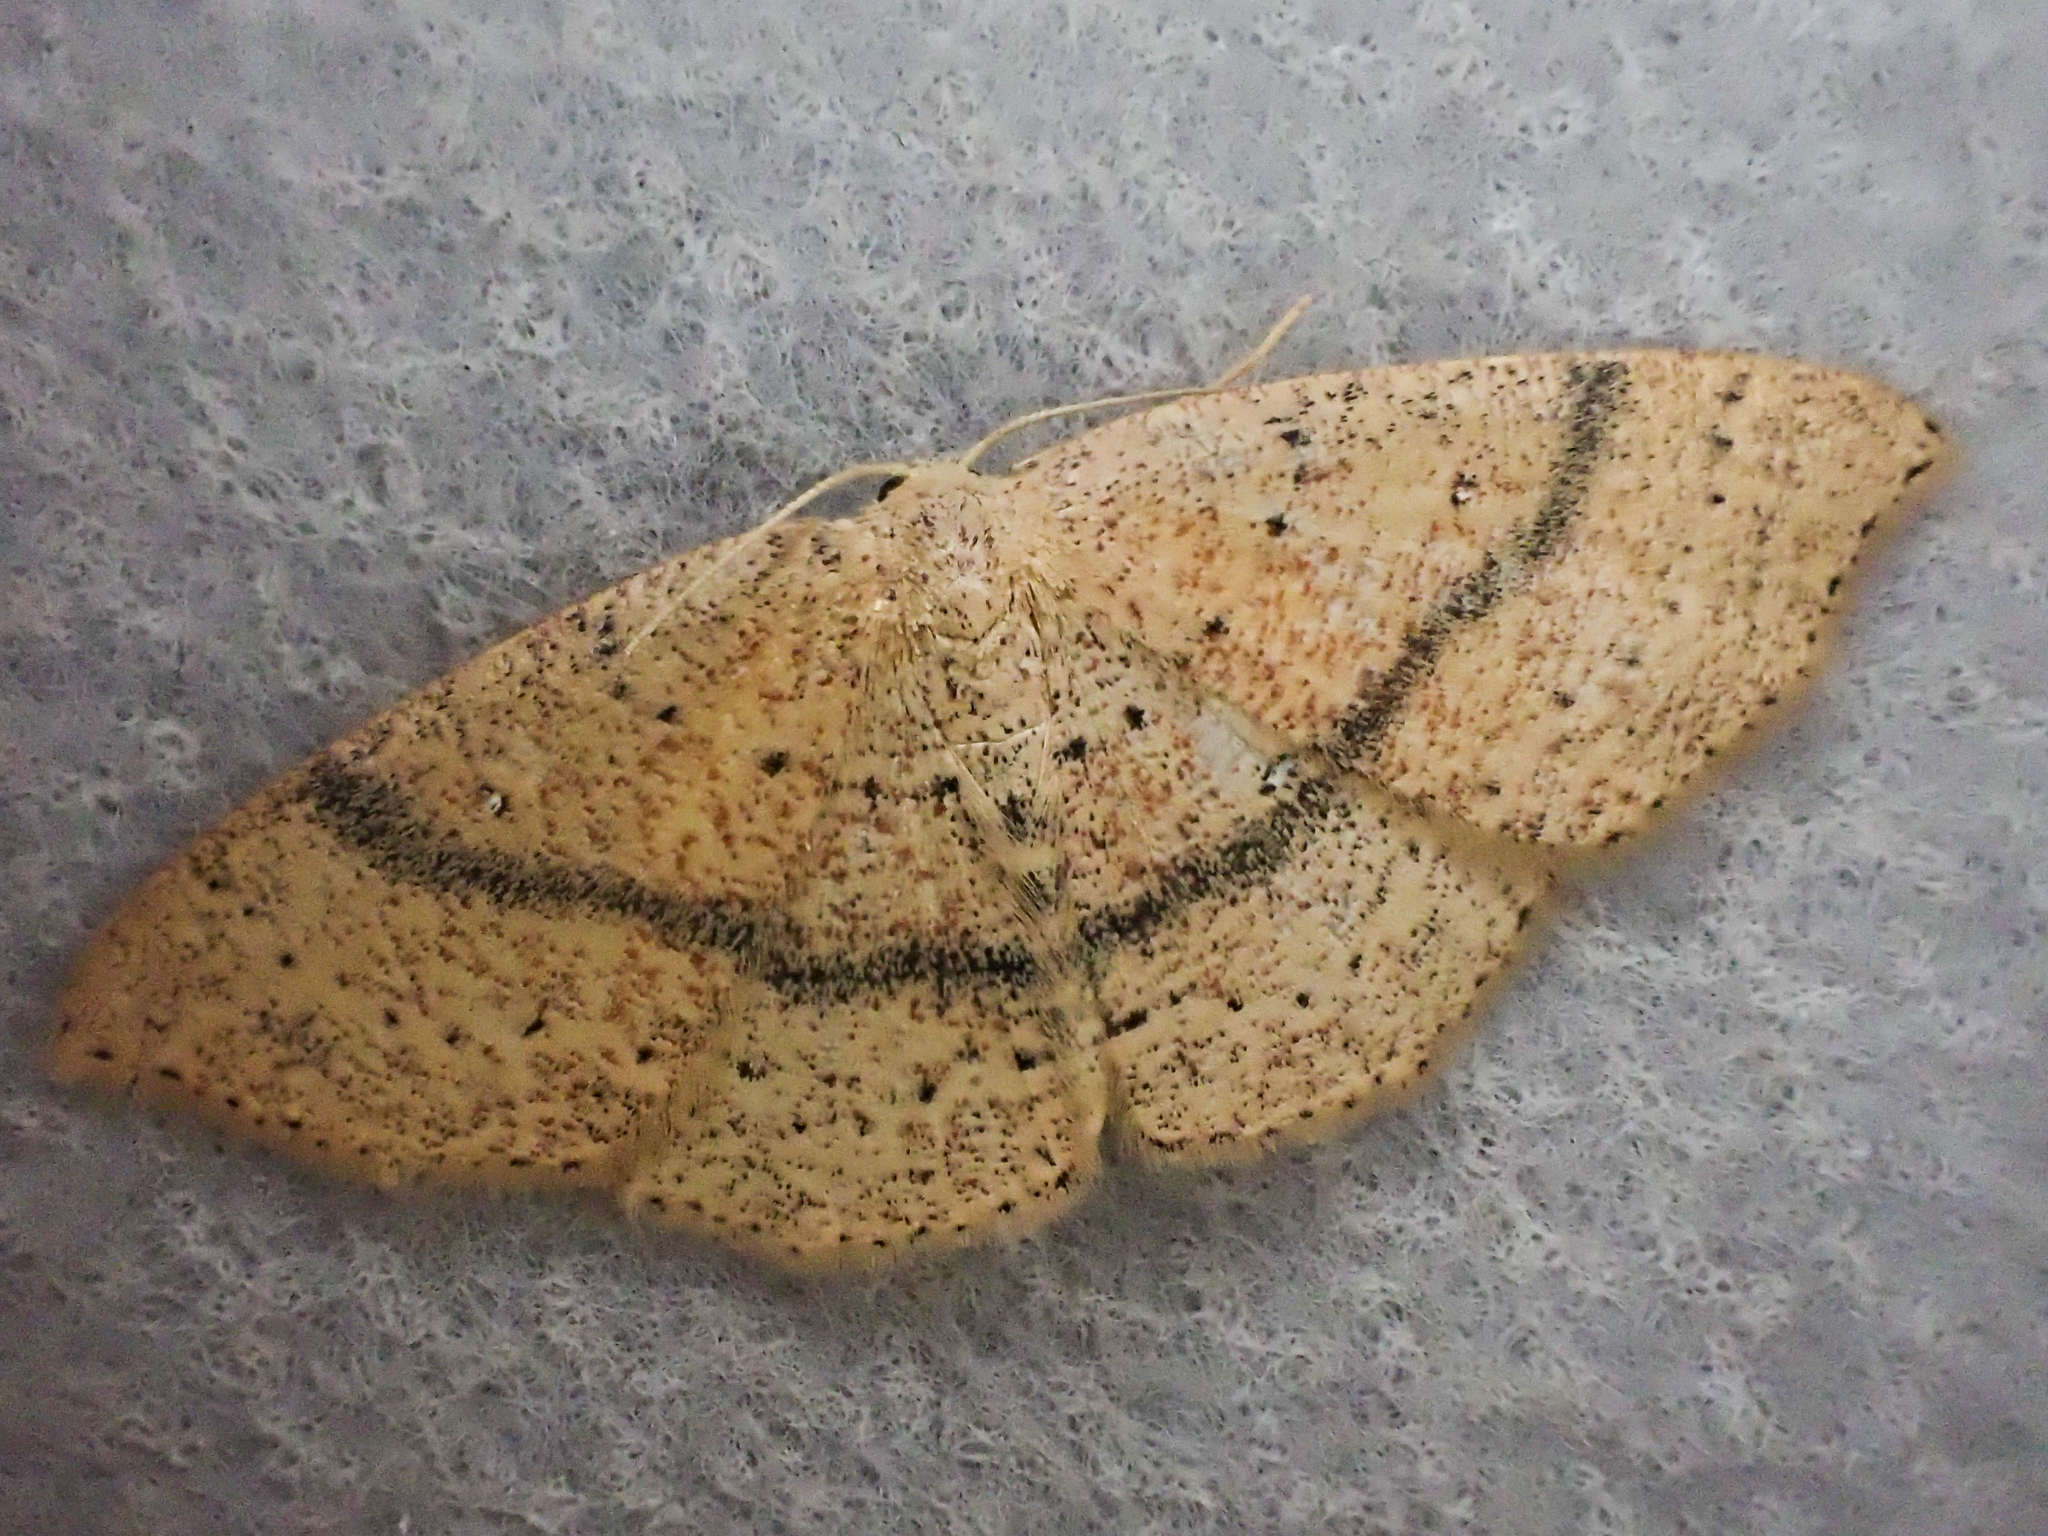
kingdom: Animalia
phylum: Arthropoda
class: Insecta
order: Lepidoptera
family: Geometridae
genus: Cyclophora
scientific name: Cyclophora dataria
